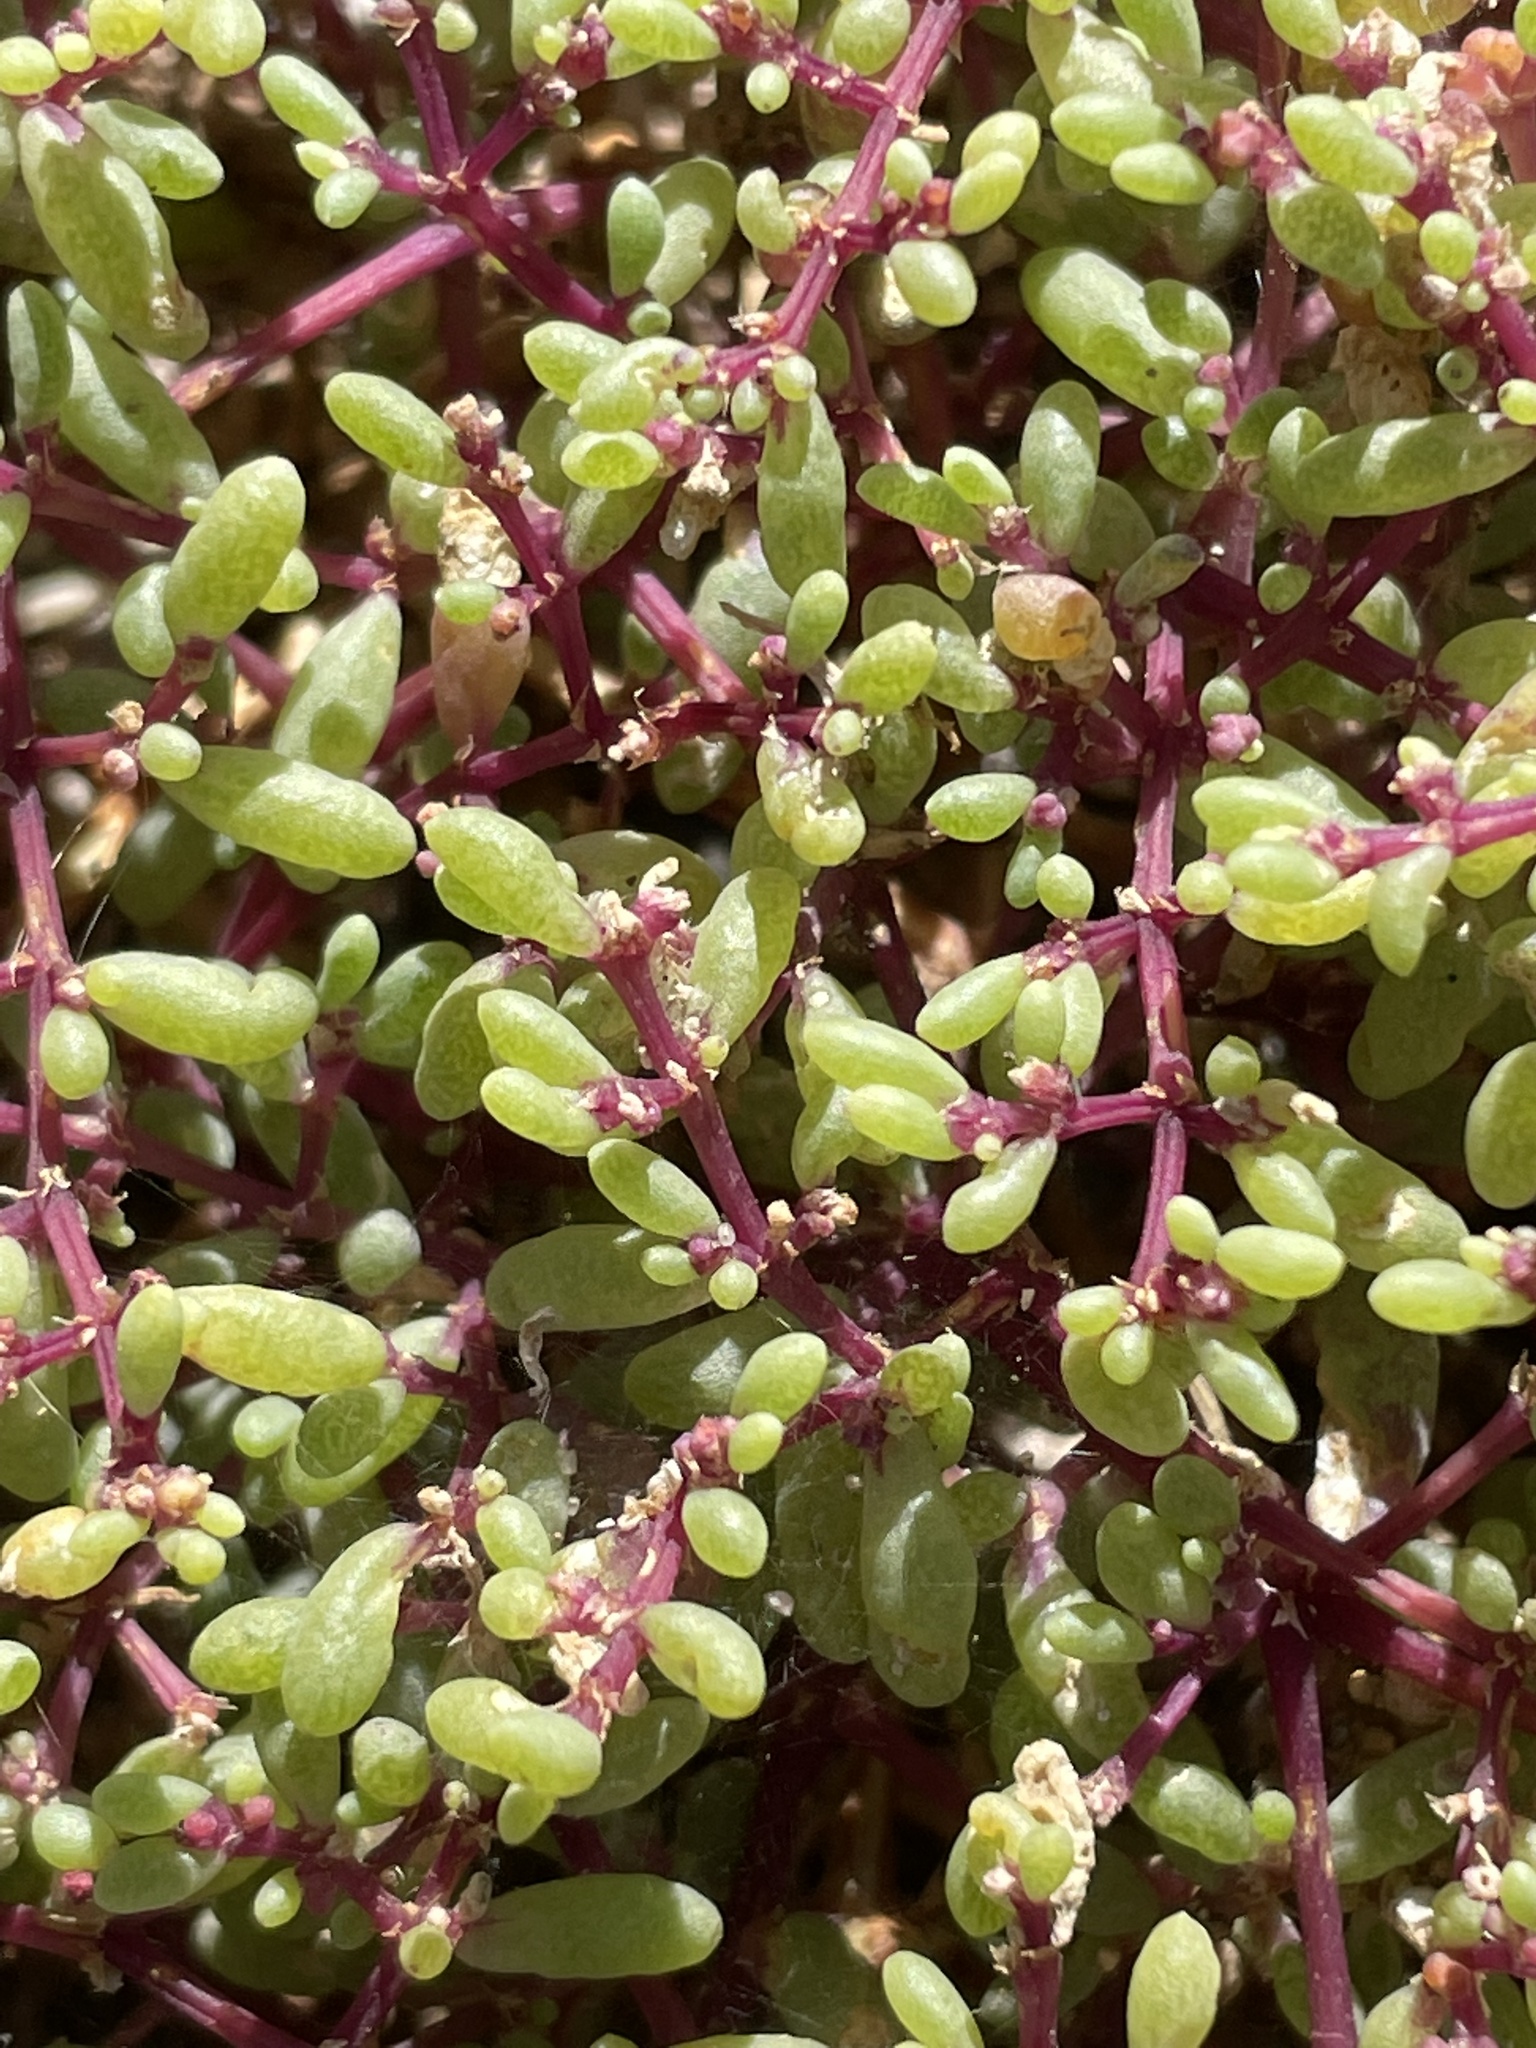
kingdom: Plantae
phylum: Tracheophyta
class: Magnoliopsida
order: Zygophyllales
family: Zygophyllaceae
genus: Tetraena
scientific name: Tetraena simplex
